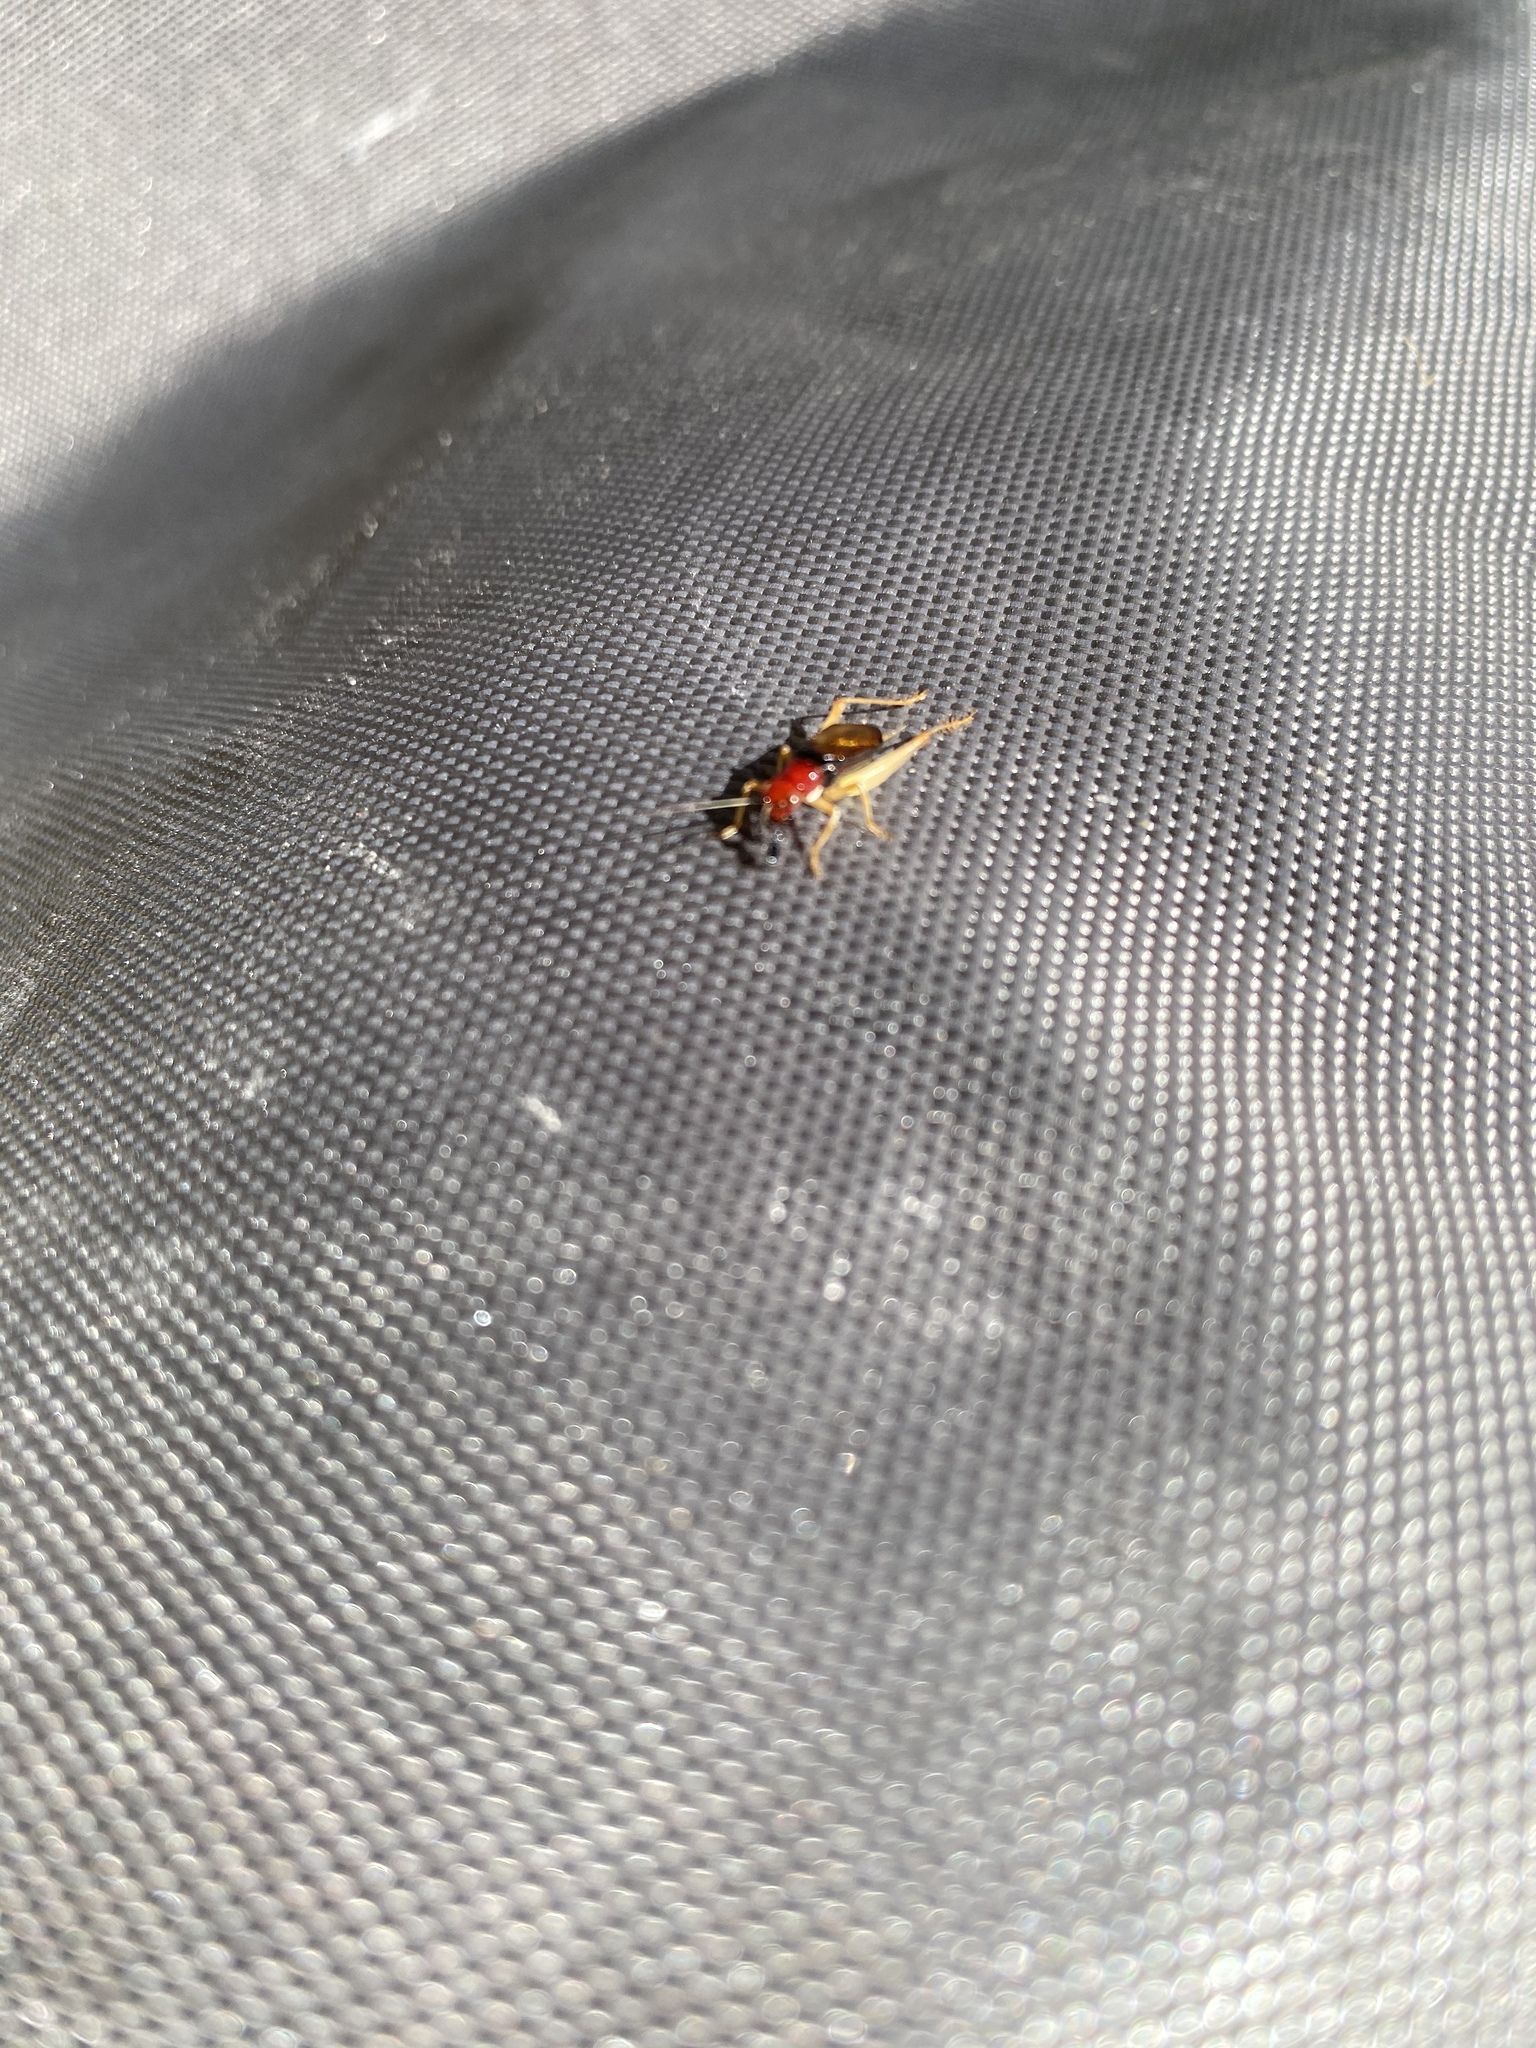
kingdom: Animalia
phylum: Arthropoda
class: Insecta
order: Orthoptera
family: Trigonidiidae
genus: Phyllopalpus
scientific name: Phyllopalpus pulchellus
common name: Handsome trig
